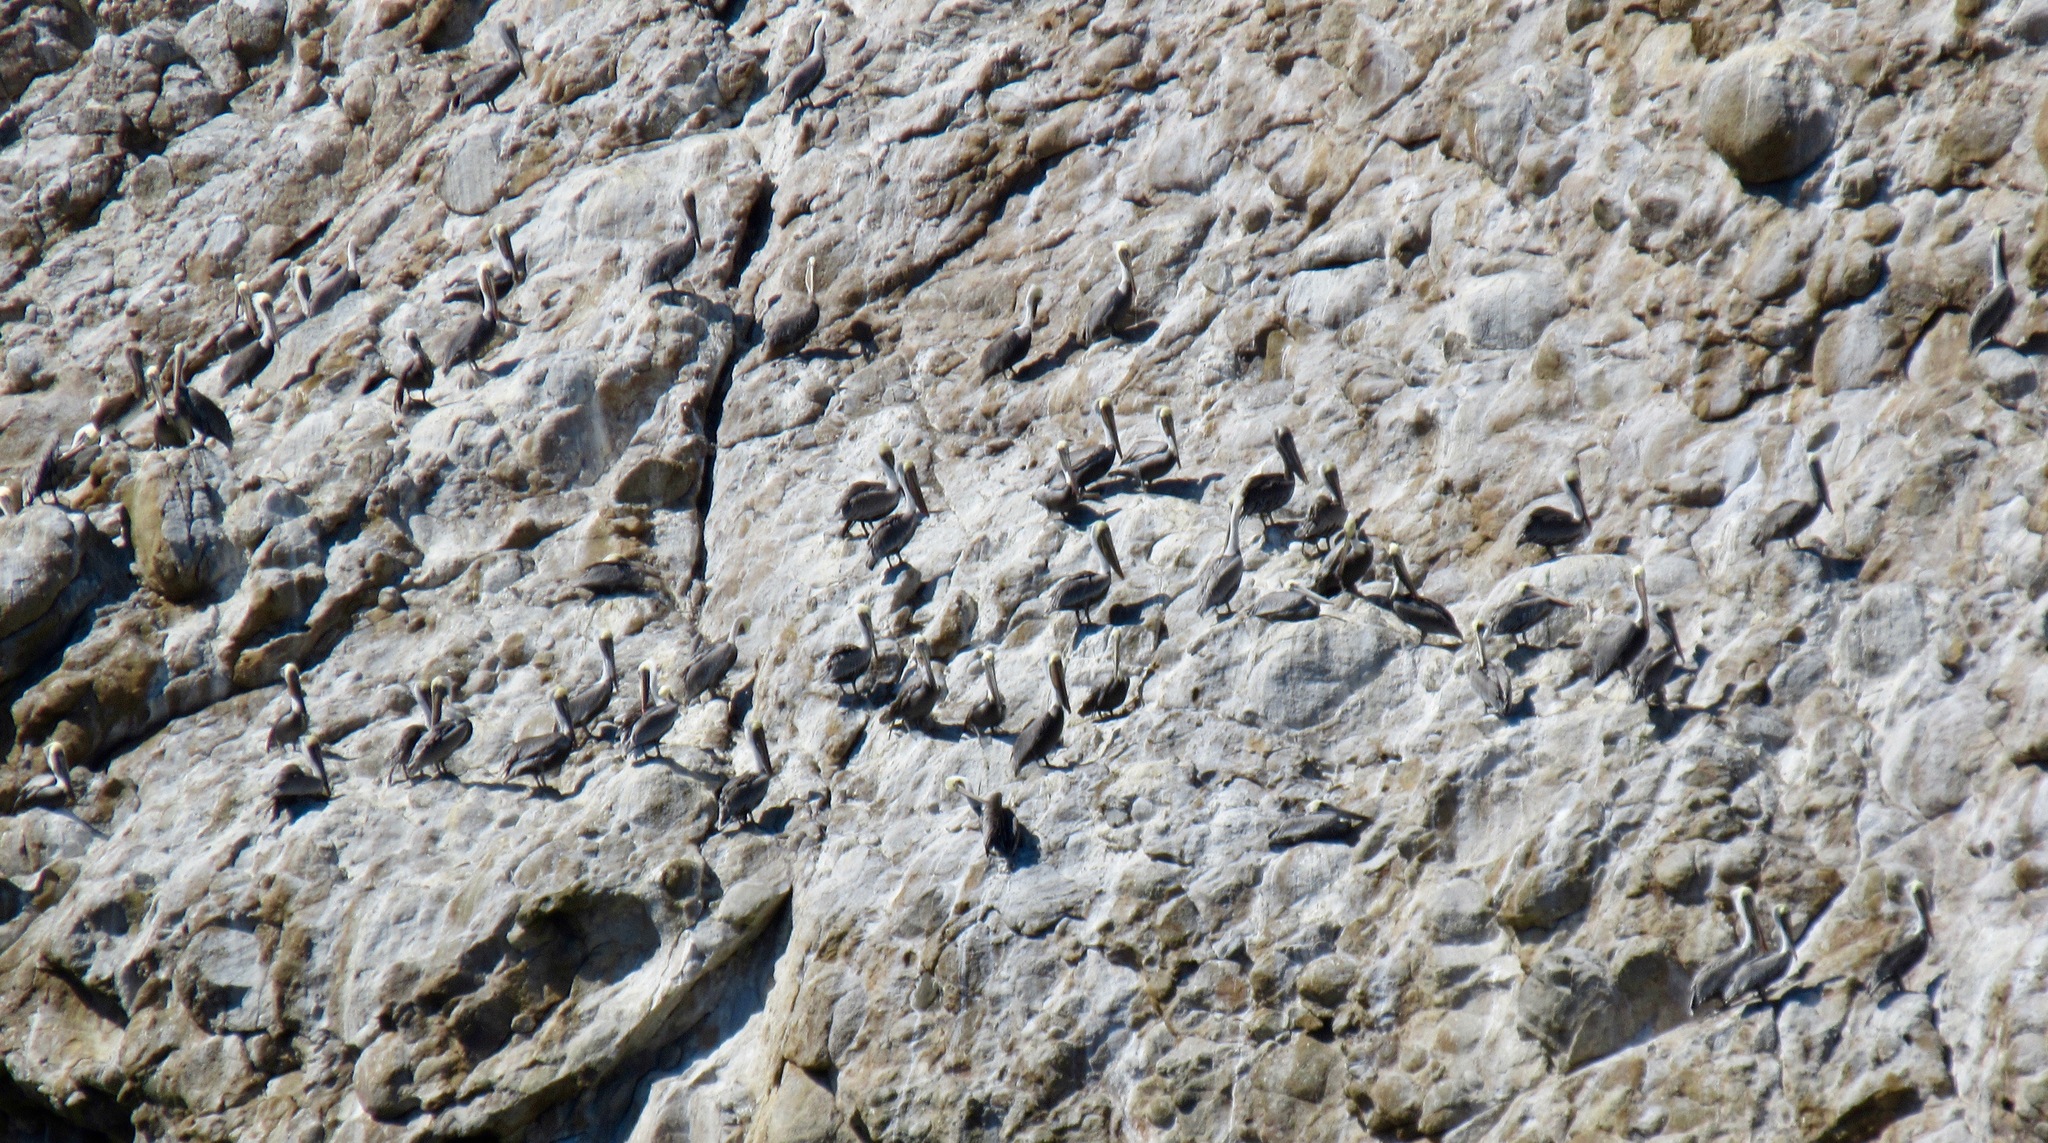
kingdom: Animalia
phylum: Chordata
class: Aves
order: Pelecaniformes
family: Pelecanidae
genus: Pelecanus
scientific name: Pelecanus occidentalis
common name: Brown pelican
